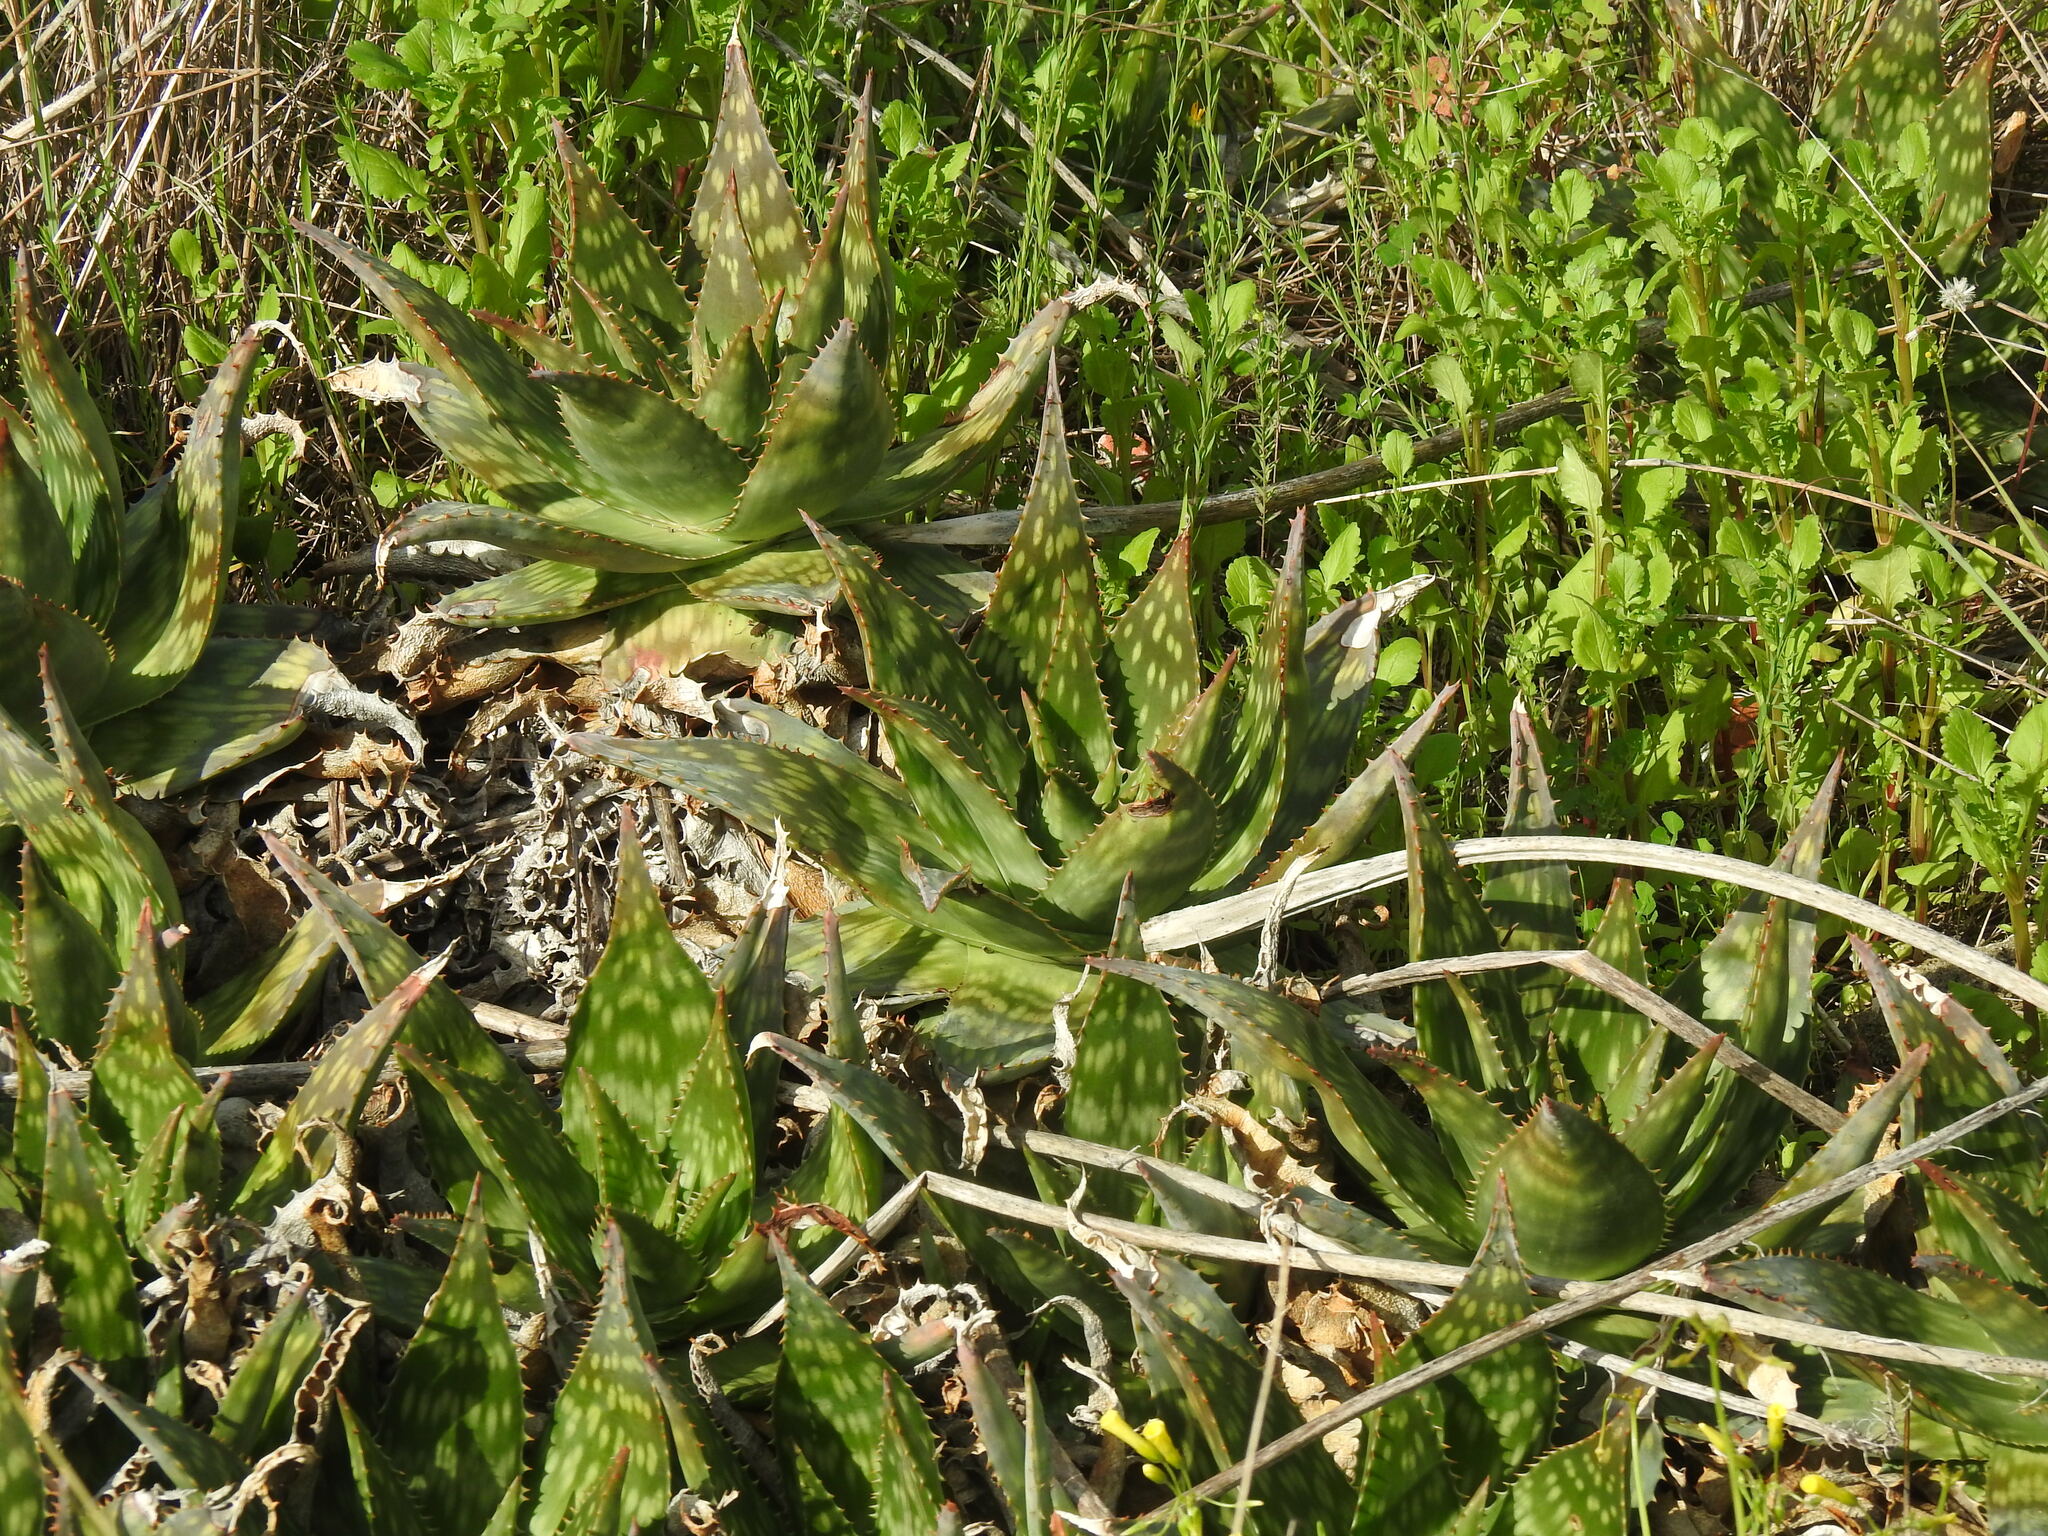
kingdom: Plantae
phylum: Tracheophyta
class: Liliopsida
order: Asparagales
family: Asphodelaceae
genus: Aloe
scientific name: Aloe maculata
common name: Broadleaf aloe
